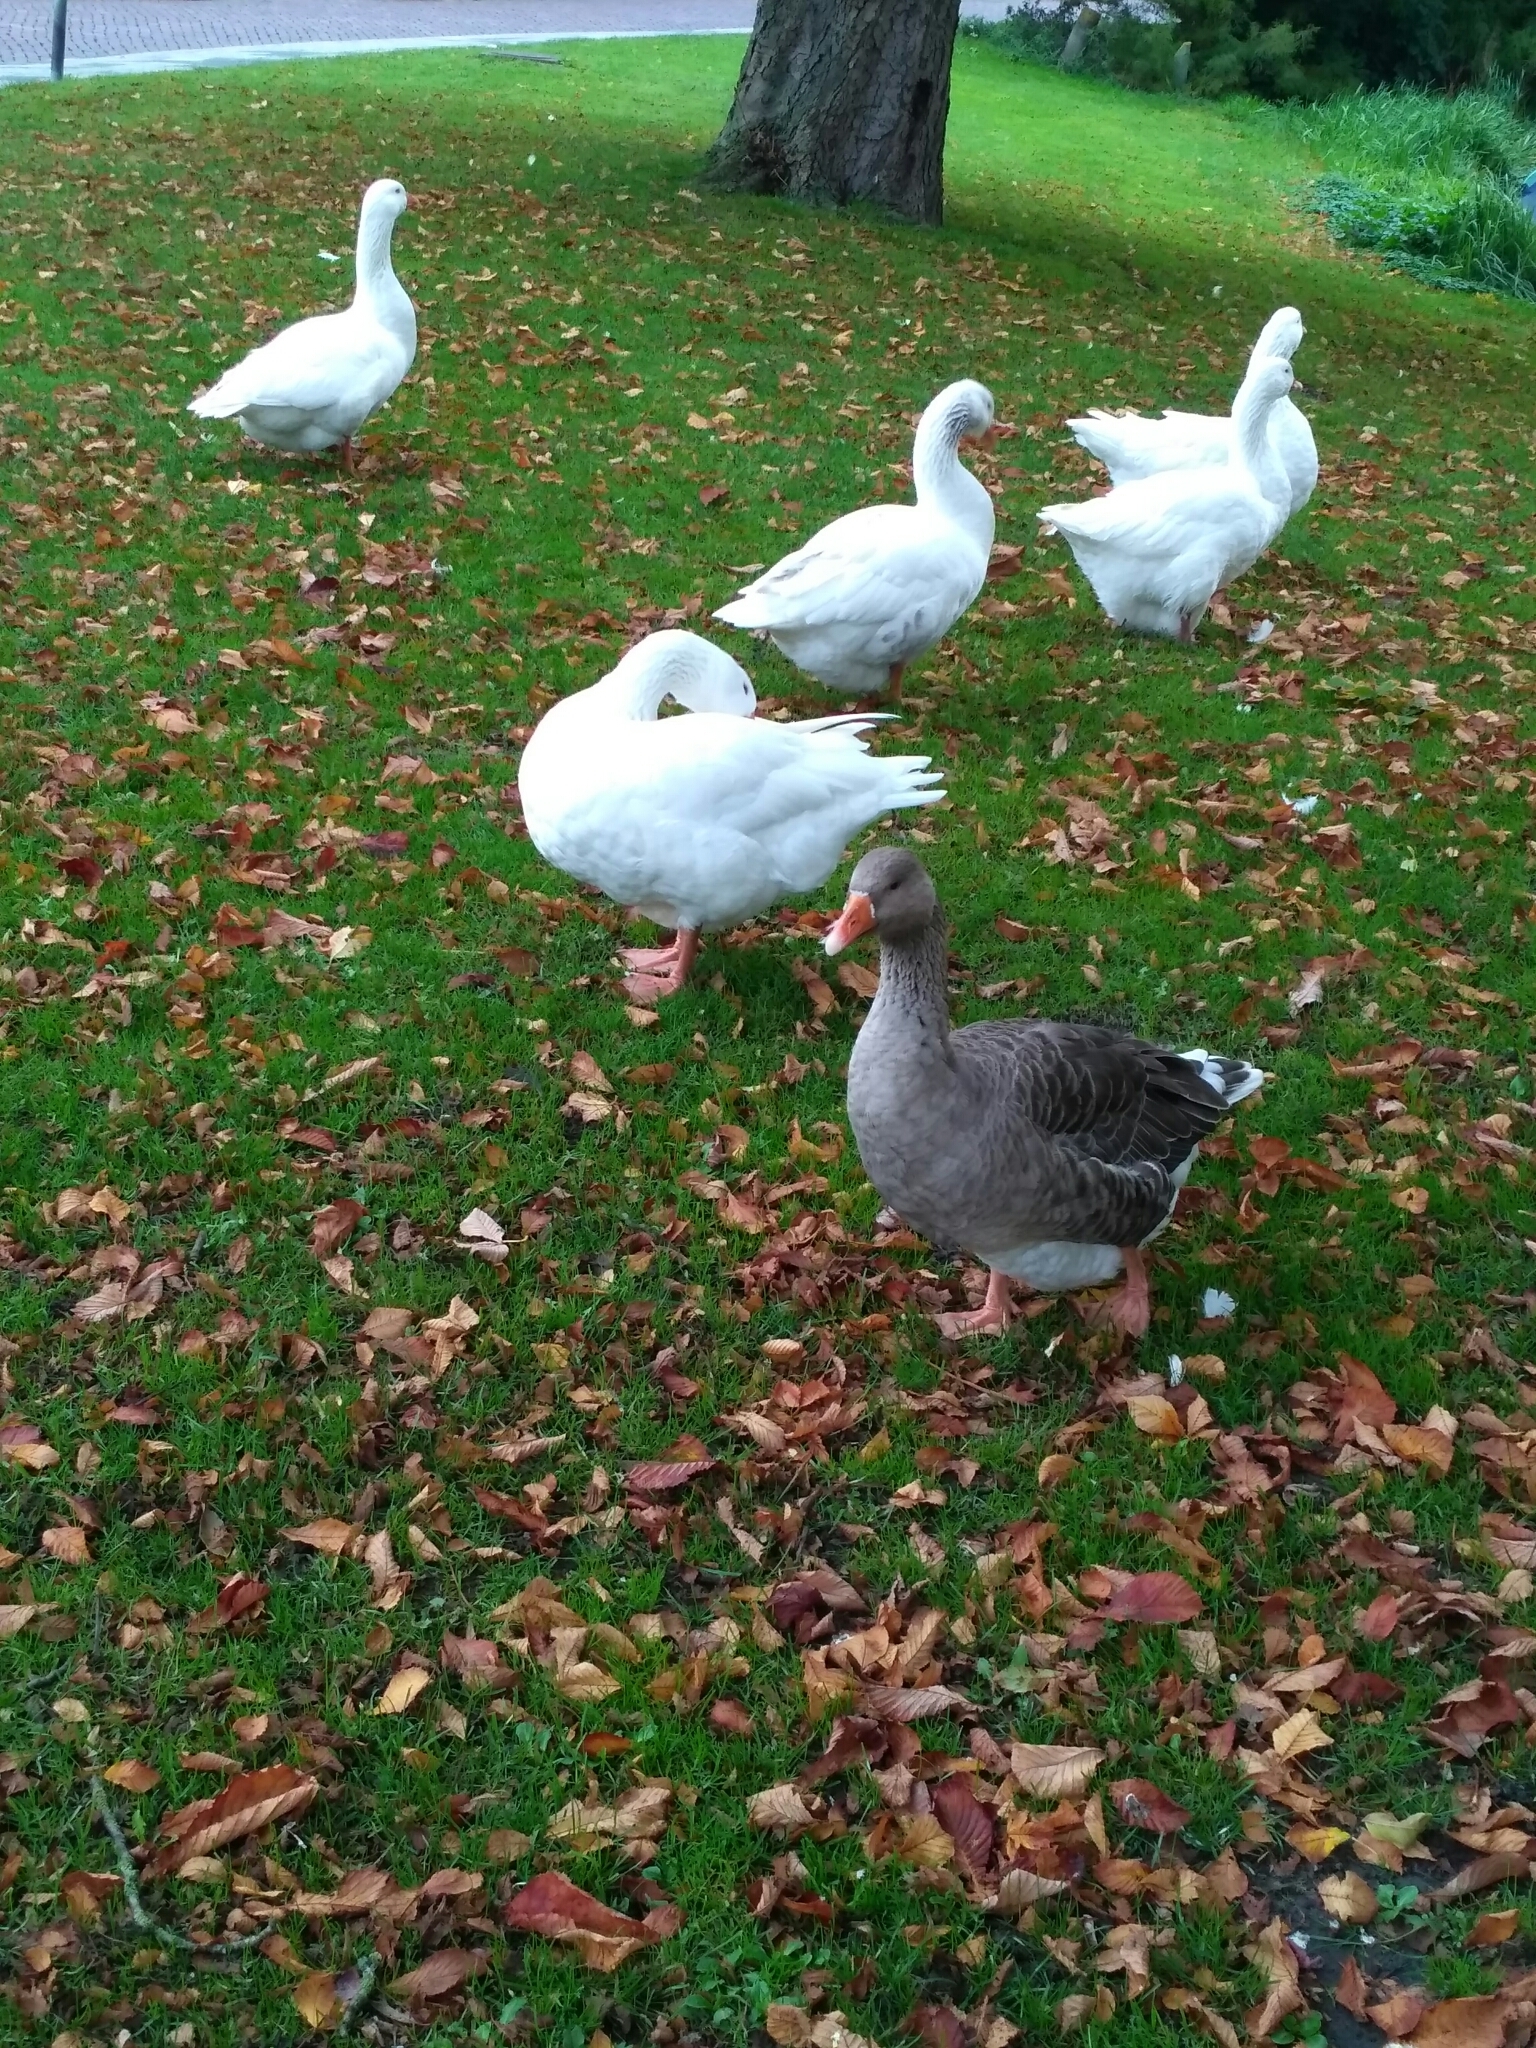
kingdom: Animalia
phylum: Chordata
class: Aves
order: Anseriformes
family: Anatidae
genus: Anser
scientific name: Anser anser
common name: Greylag goose
